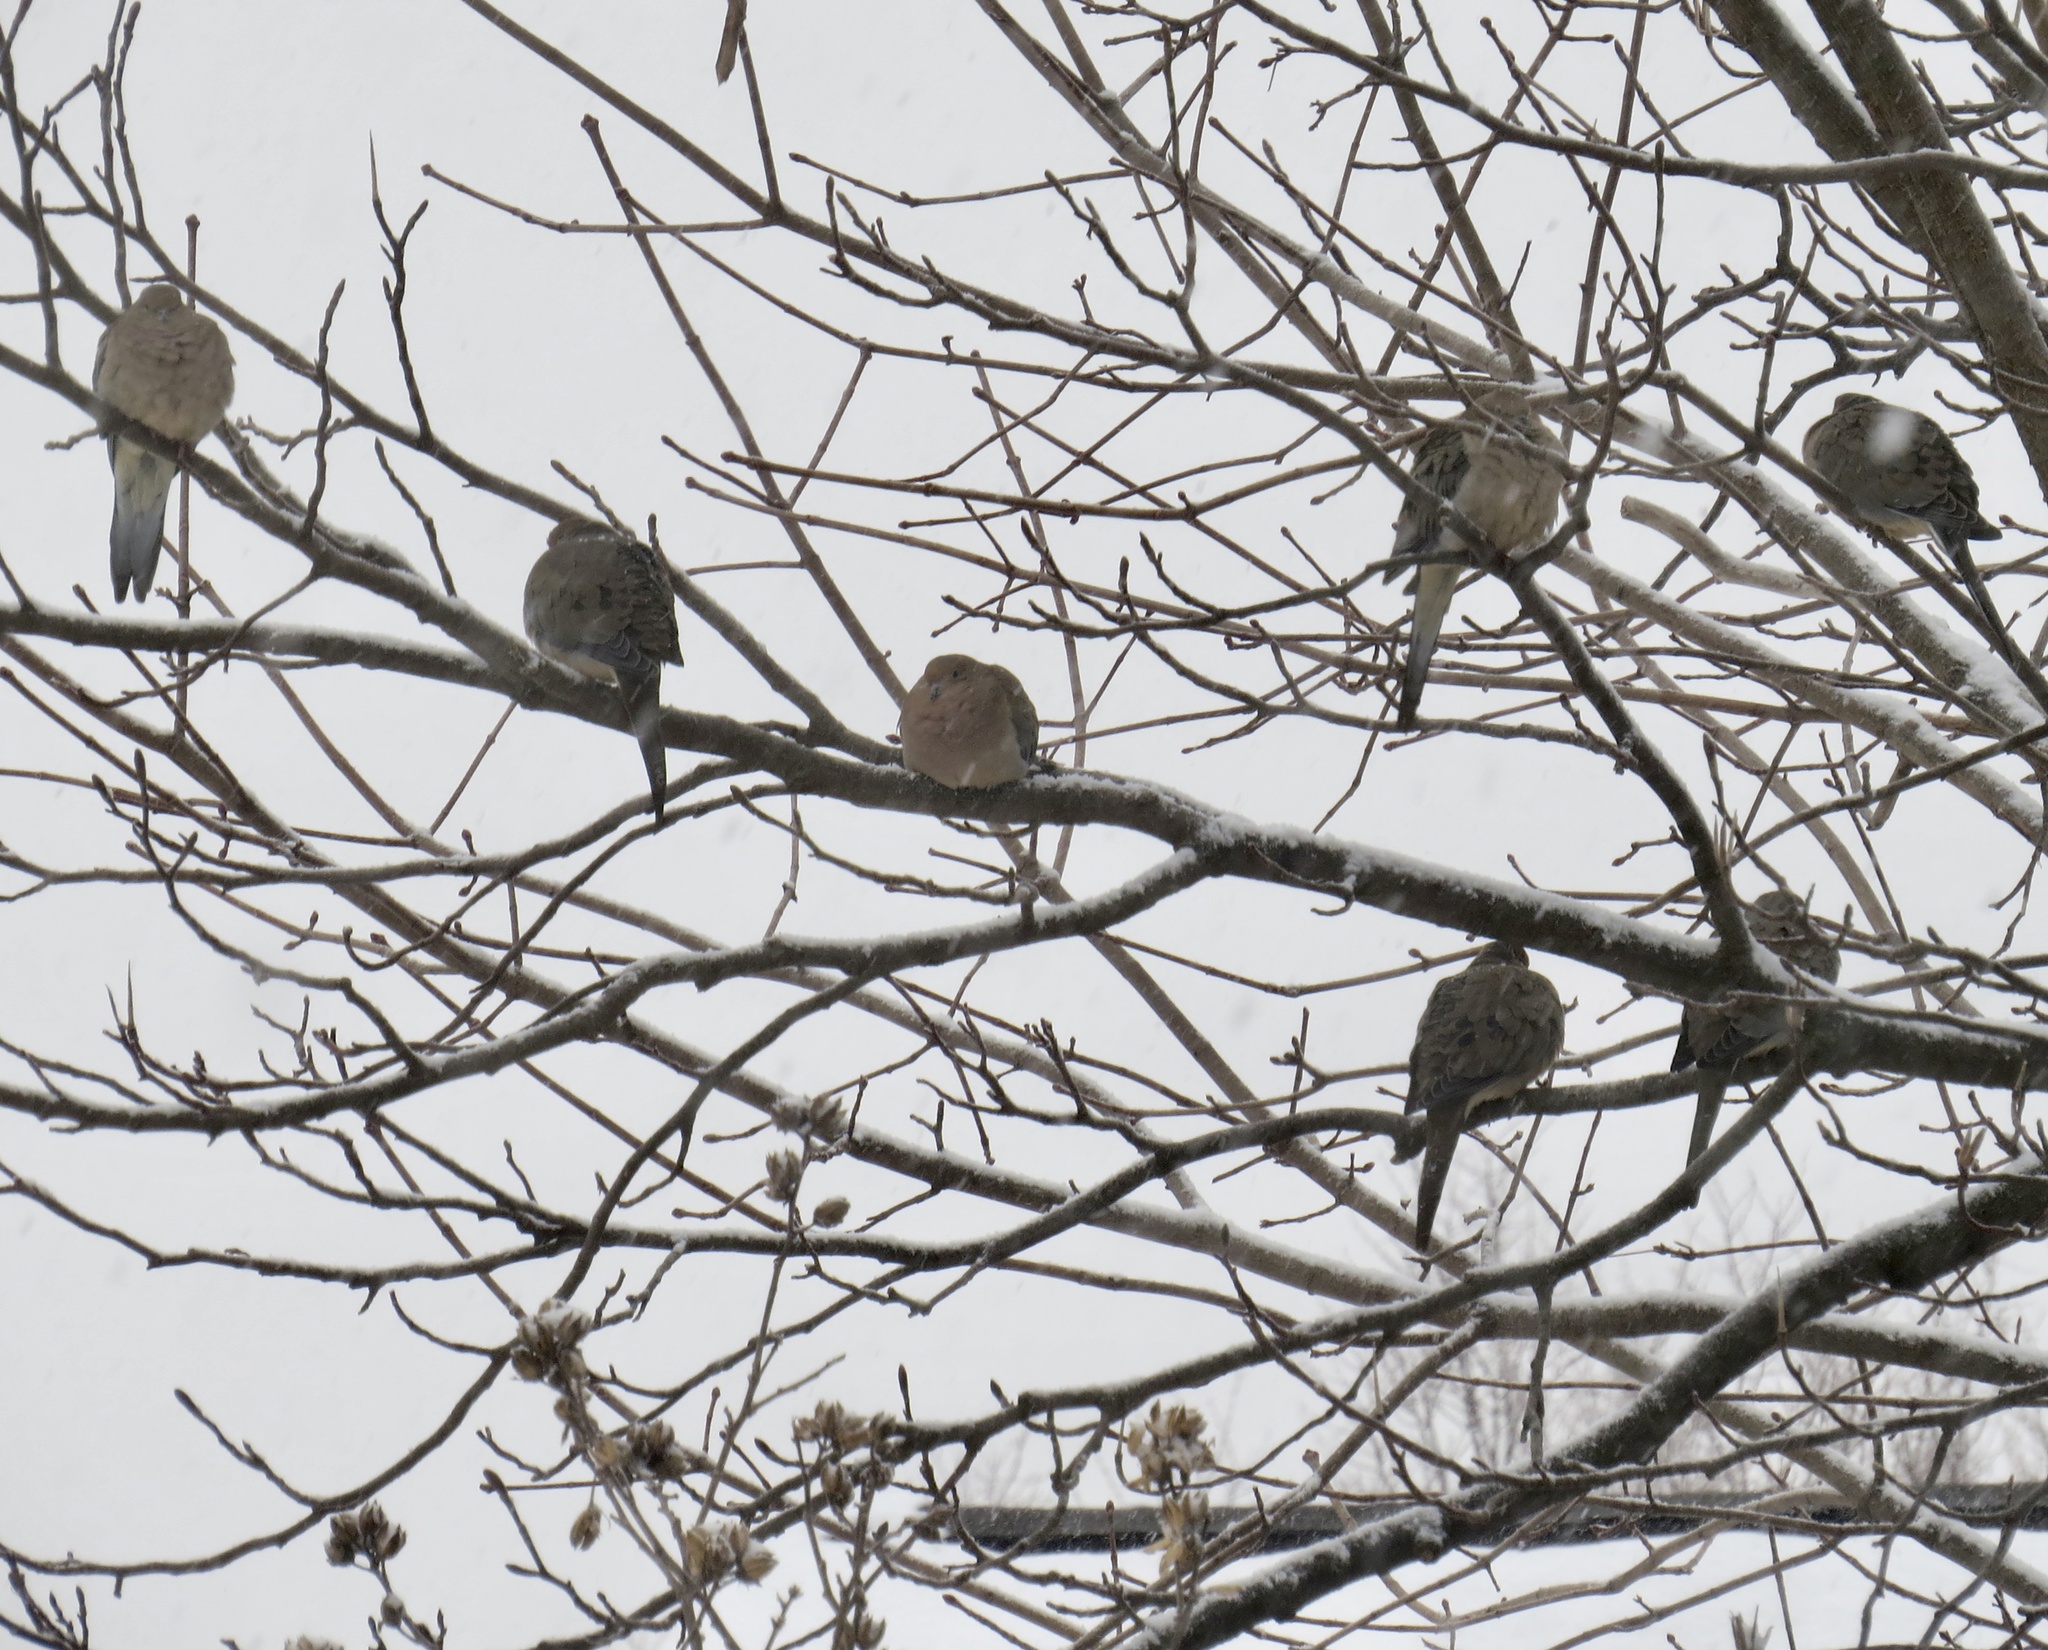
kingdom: Animalia
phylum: Chordata
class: Aves
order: Columbiformes
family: Columbidae
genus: Zenaida
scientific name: Zenaida macroura
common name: Mourning dove
